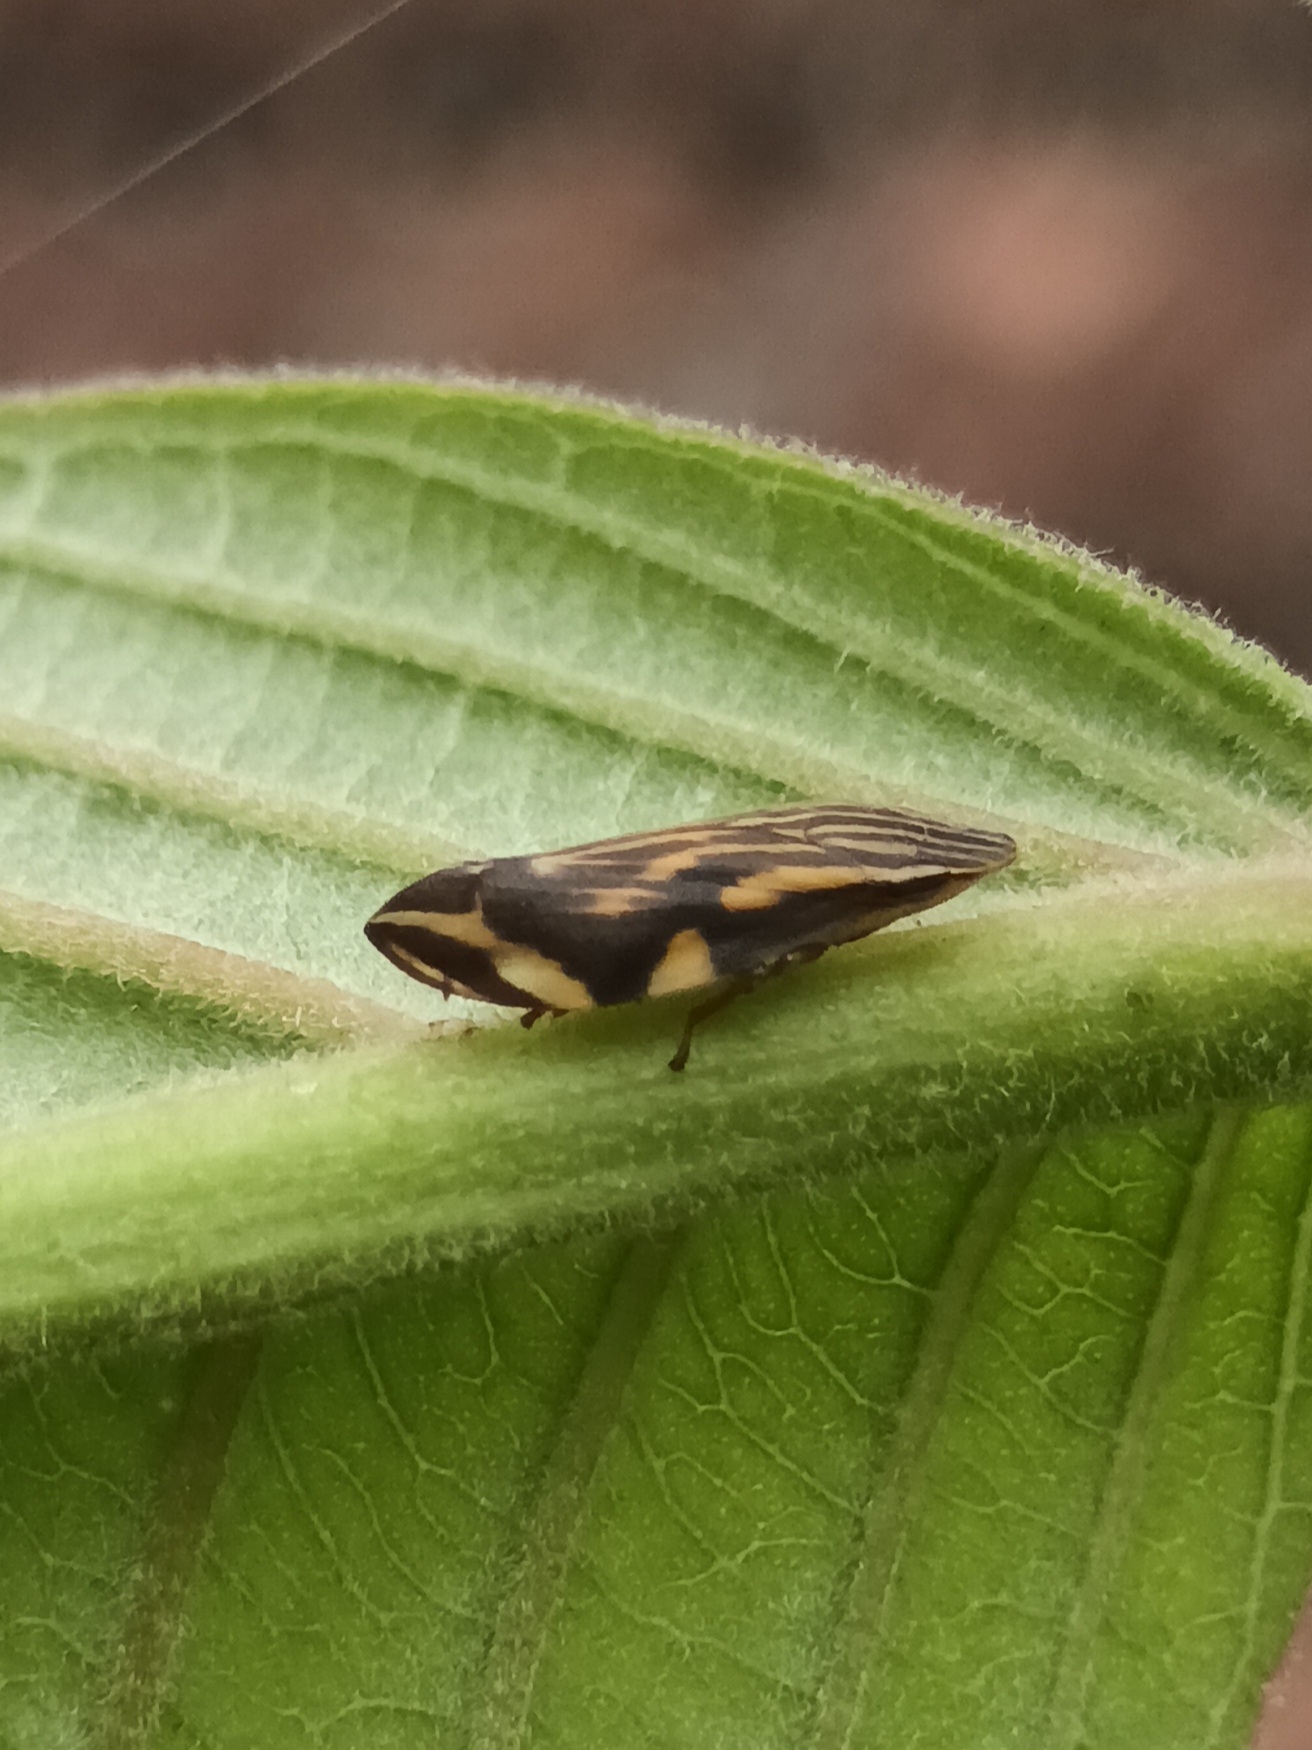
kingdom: Animalia
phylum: Arthropoda
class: Insecta
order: Hemiptera
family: Aphrophoridae
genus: Clovia
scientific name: Clovia lineatocollis
